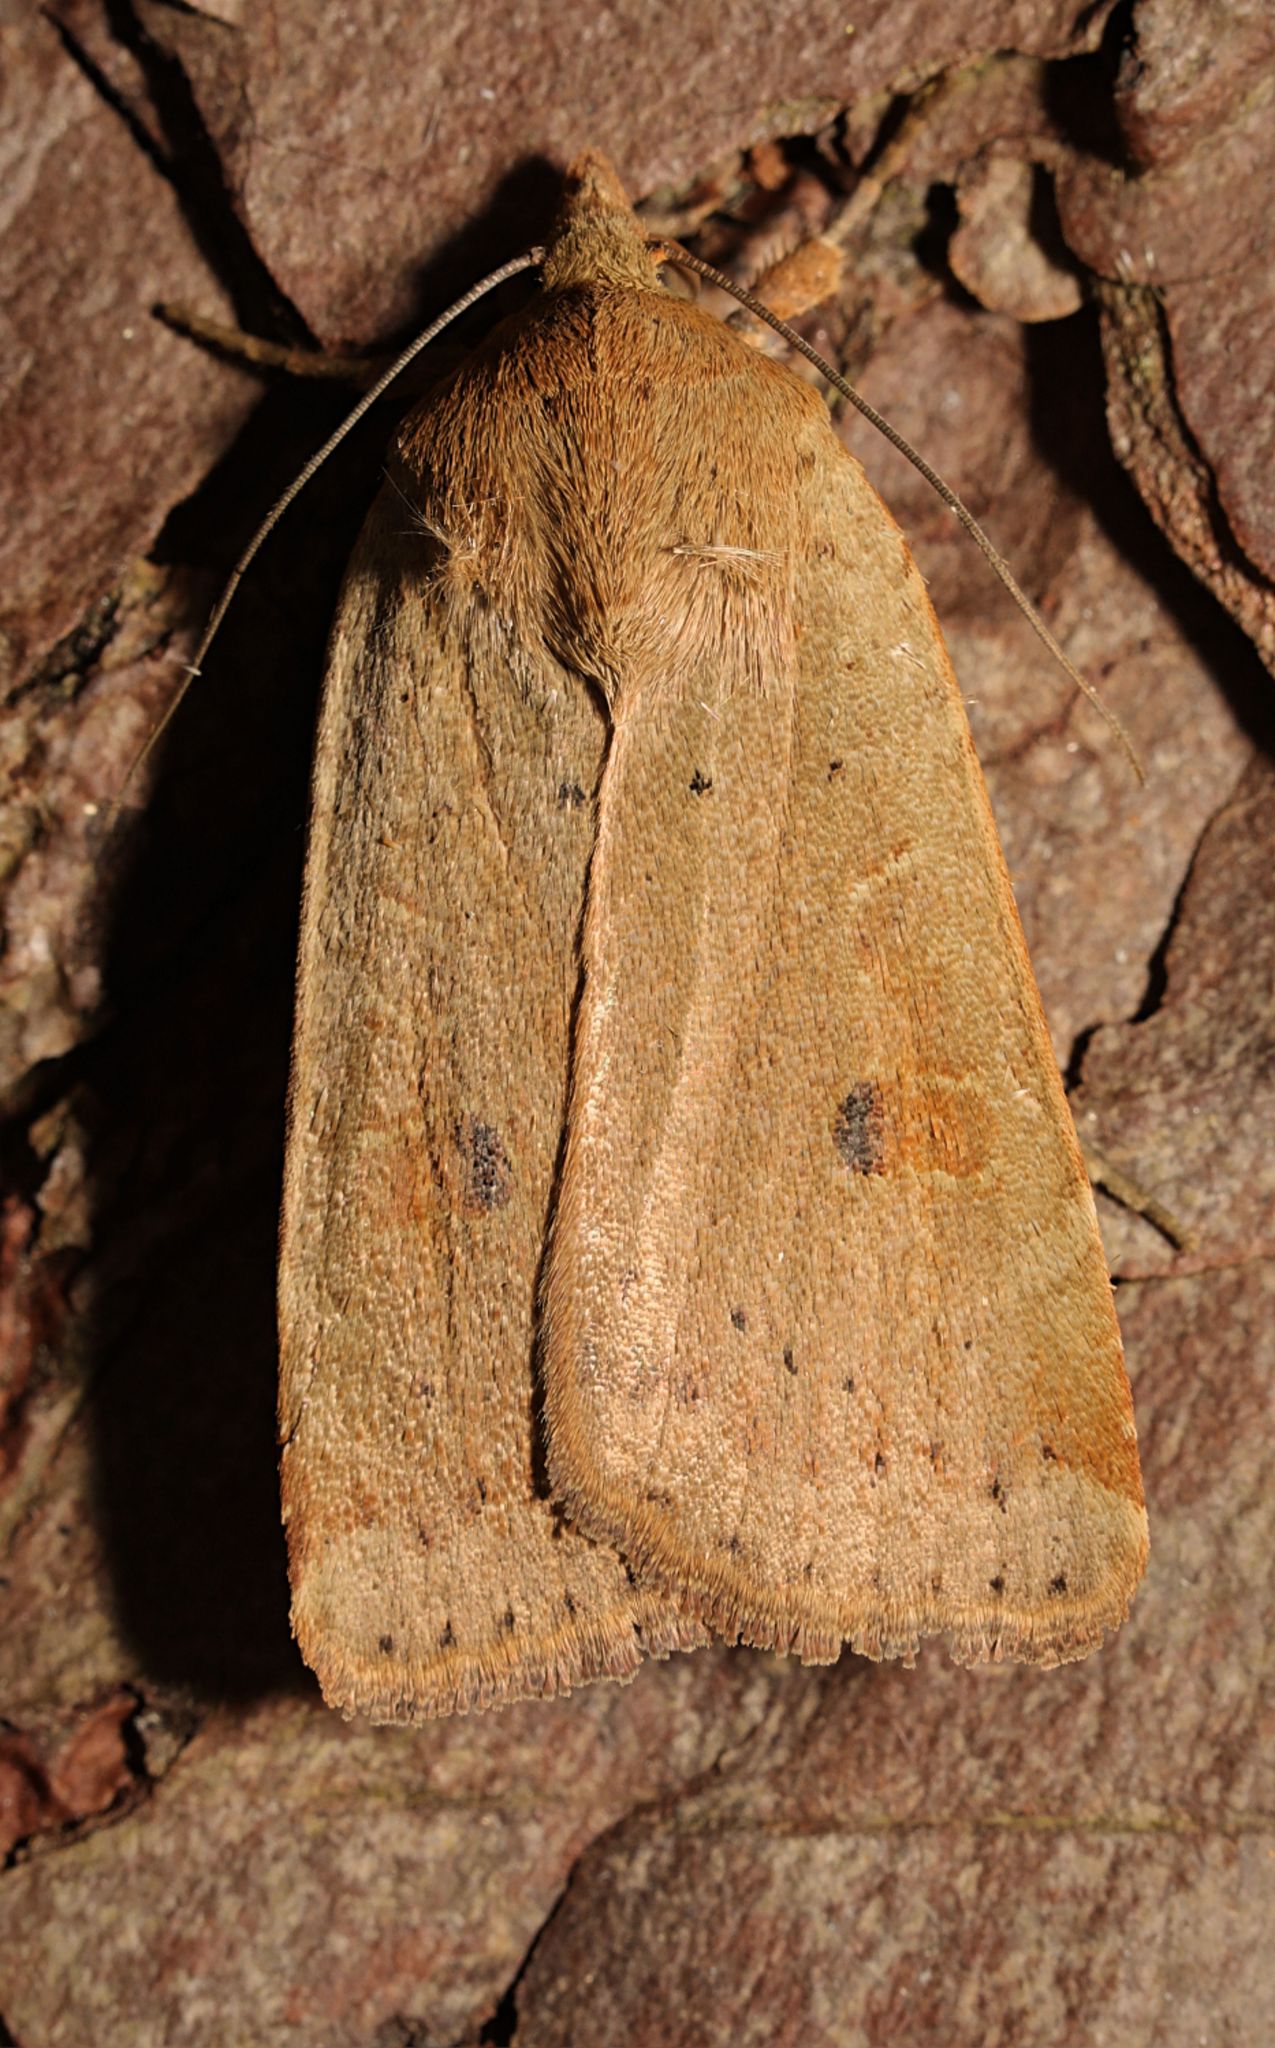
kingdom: Animalia
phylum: Arthropoda
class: Insecta
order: Lepidoptera
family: Noctuidae
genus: Noctua
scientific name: Noctua comes
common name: Lesser yellow underwing
